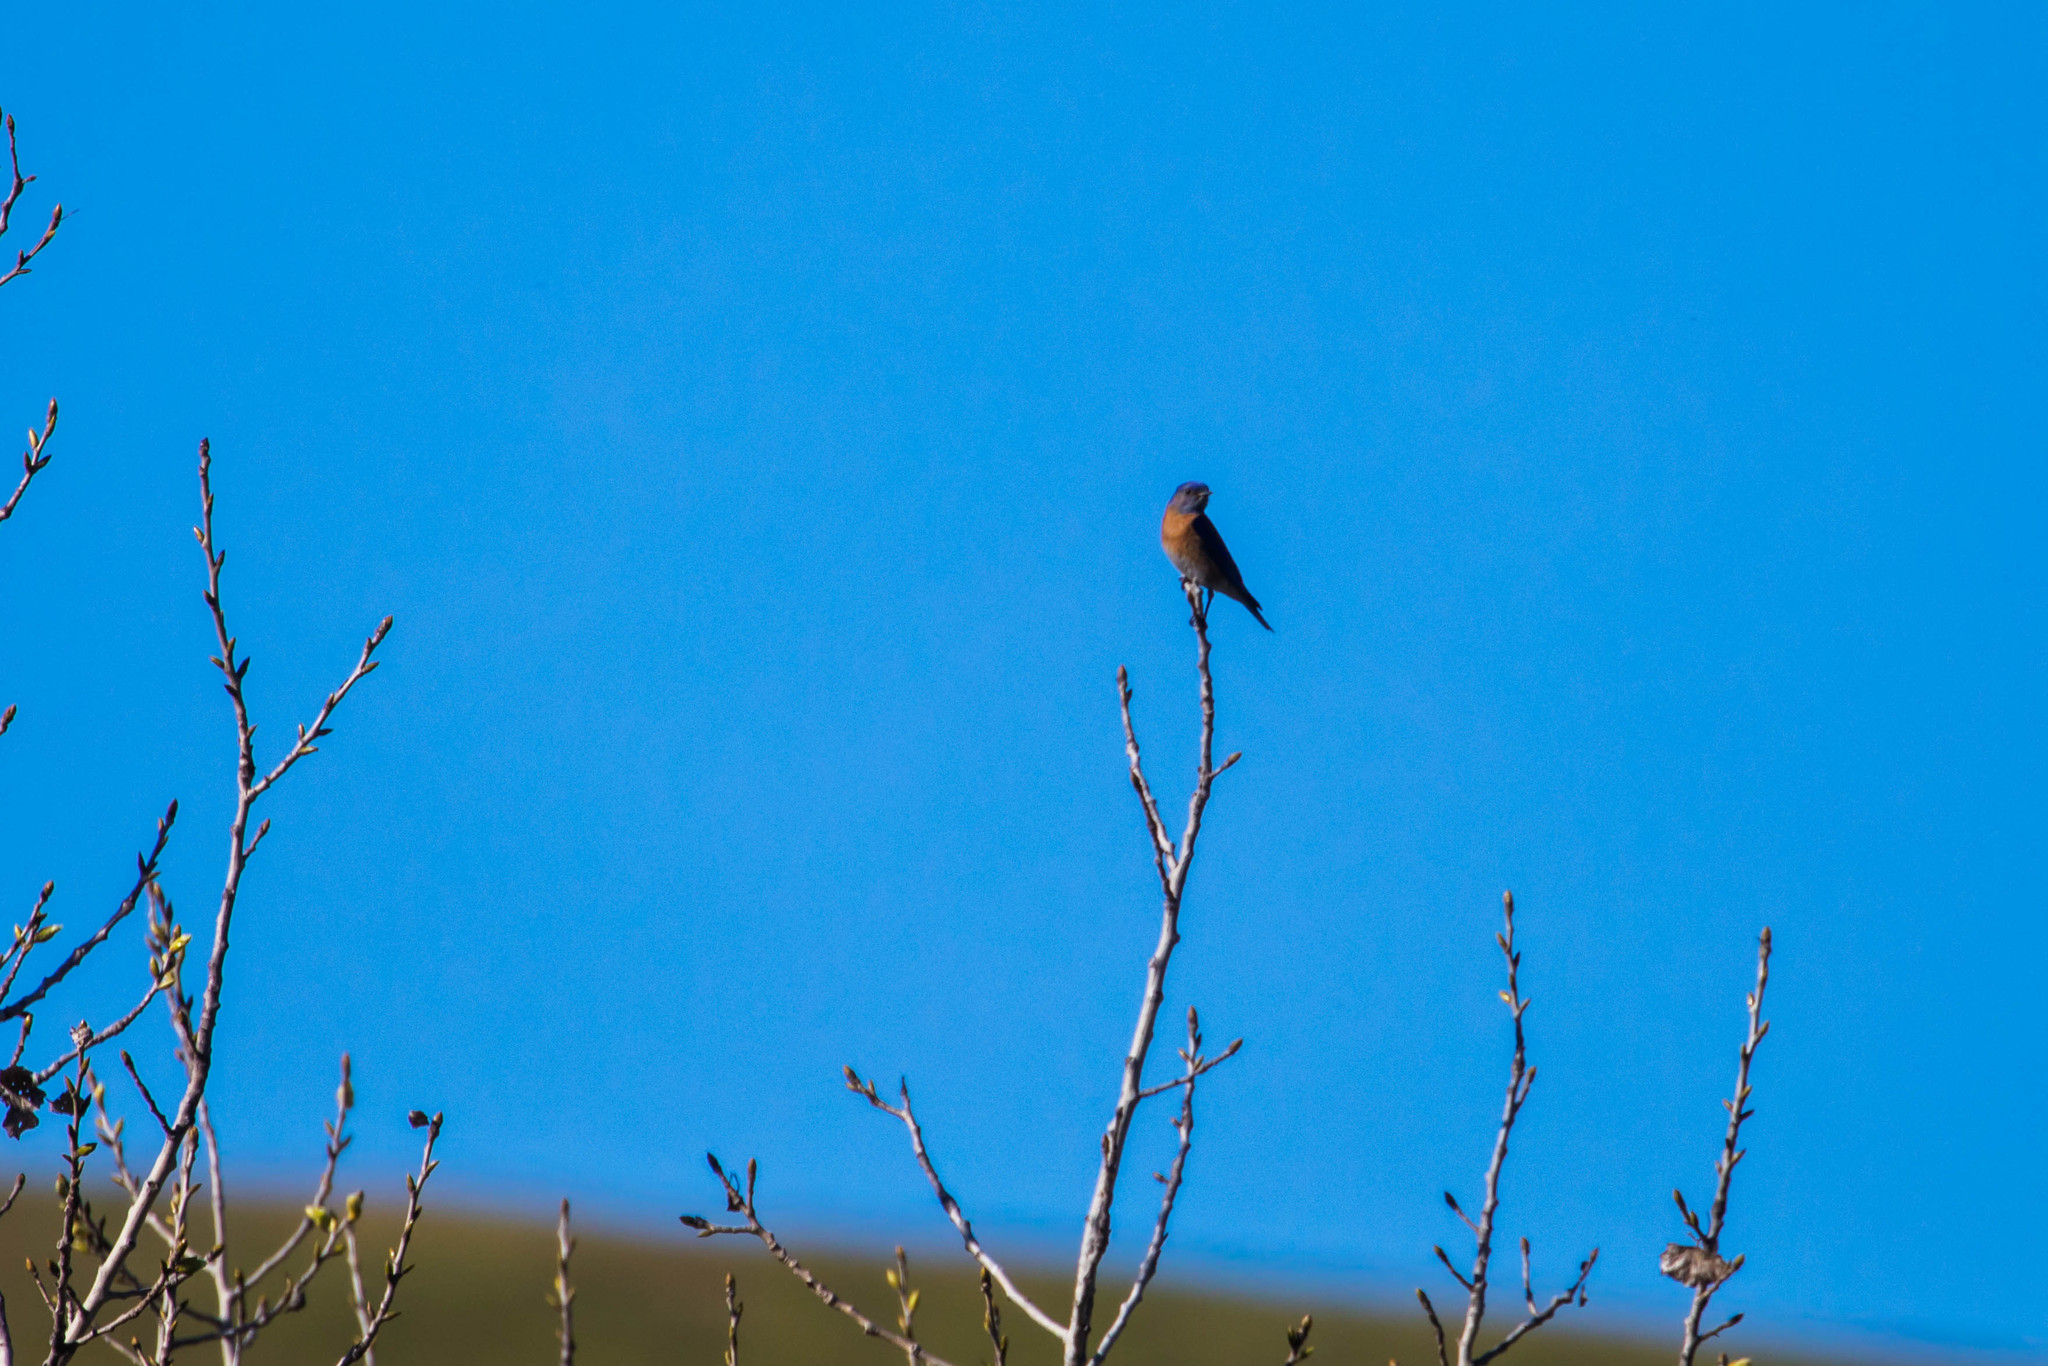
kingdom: Animalia
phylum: Chordata
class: Aves
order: Passeriformes
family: Turdidae
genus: Sialia
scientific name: Sialia mexicana
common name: Western bluebird
